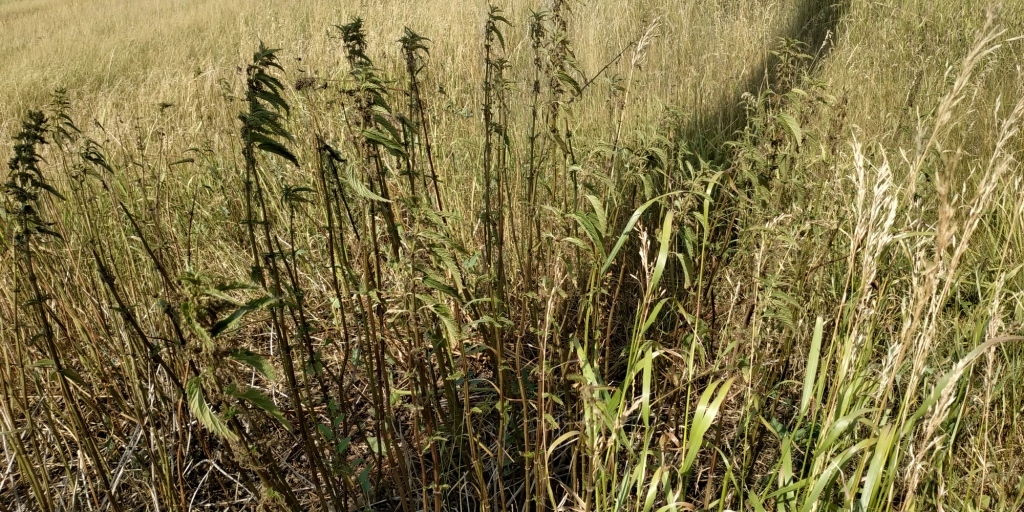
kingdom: Plantae
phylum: Tracheophyta
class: Magnoliopsida
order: Rosales
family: Urticaceae
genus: Urtica
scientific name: Urtica dioica
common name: Common nettle
